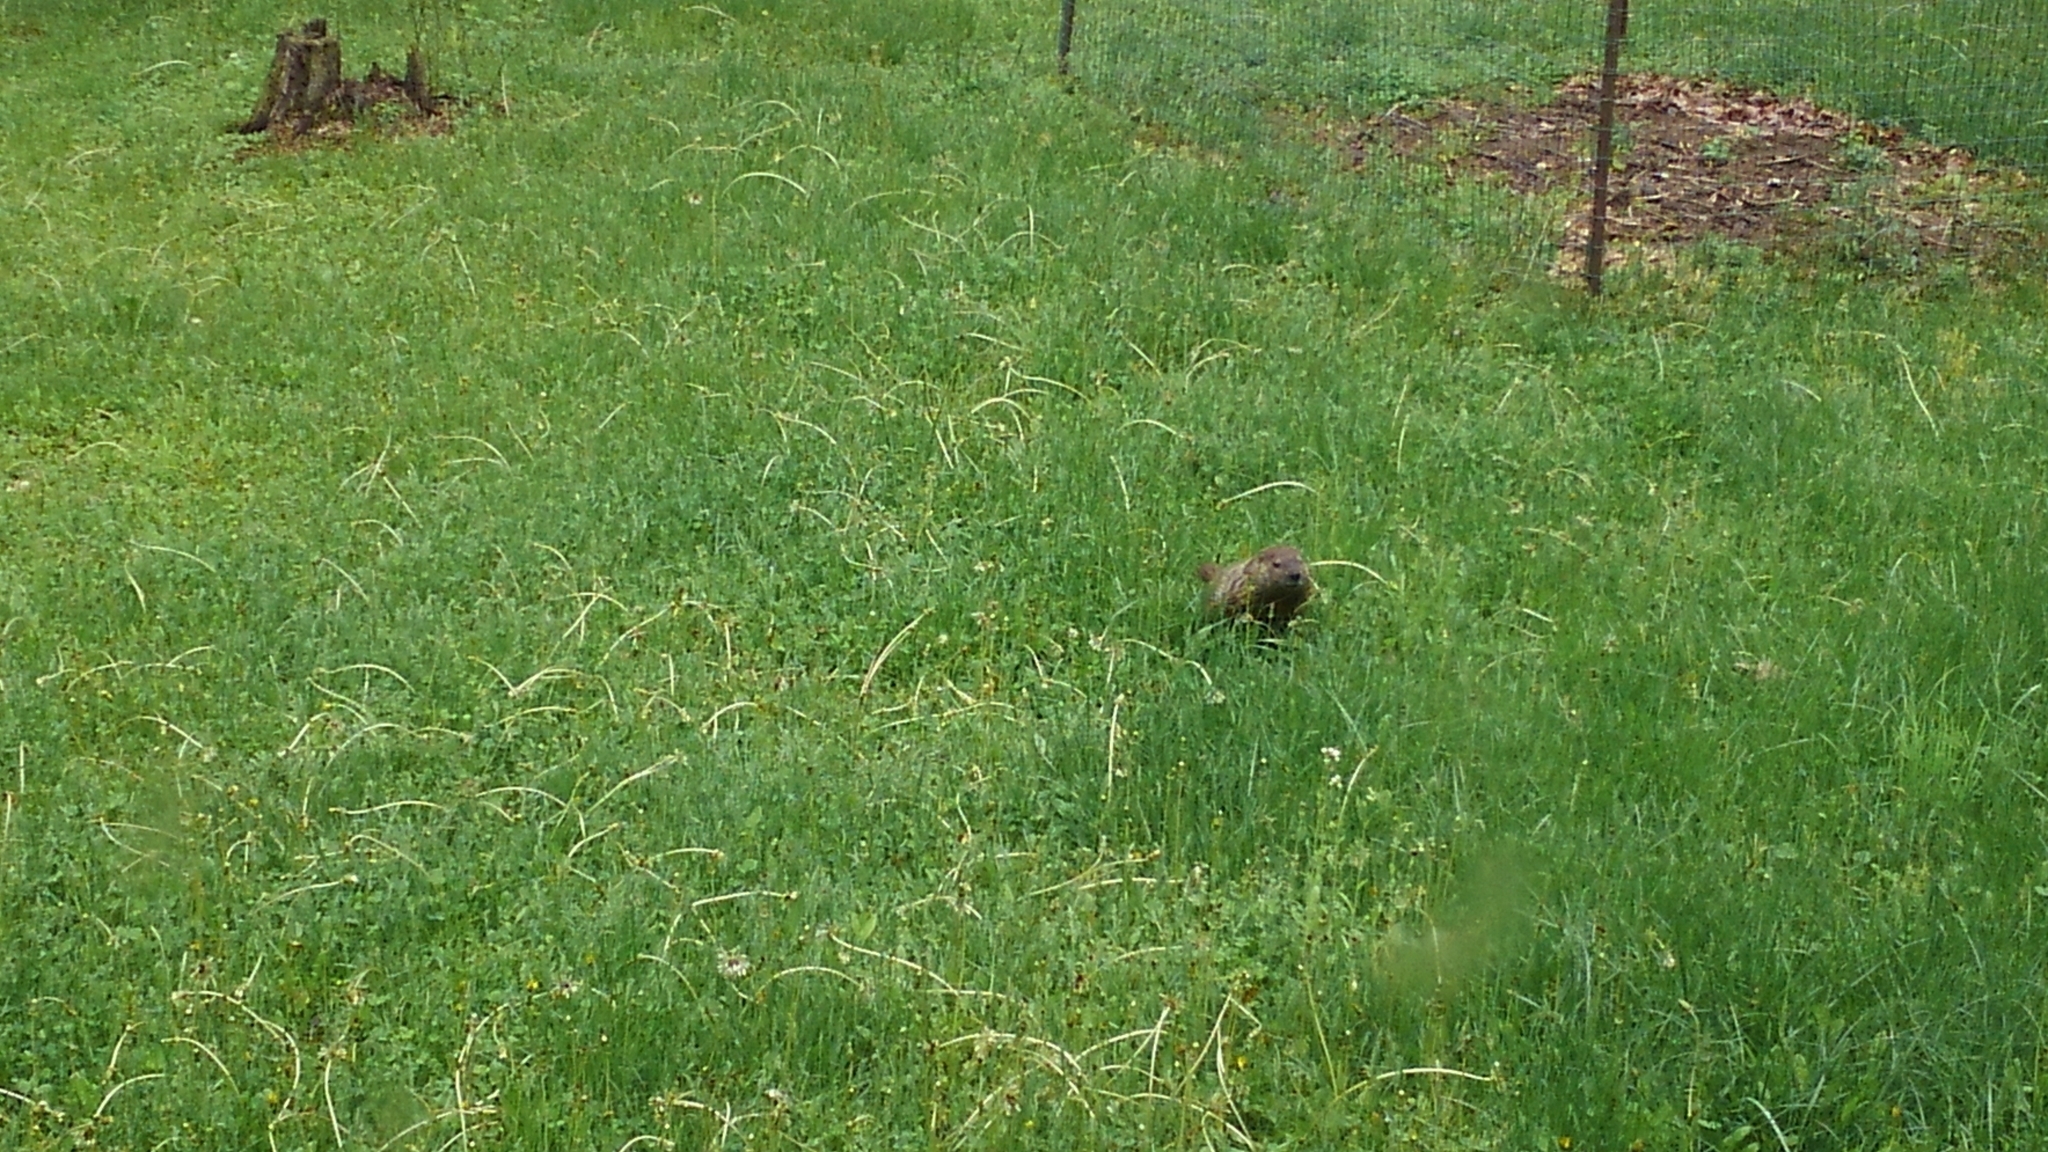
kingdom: Animalia
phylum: Chordata
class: Mammalia
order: Rodentia
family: Sciuridae
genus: Marmota
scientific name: Marmota monax
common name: Groundhog
